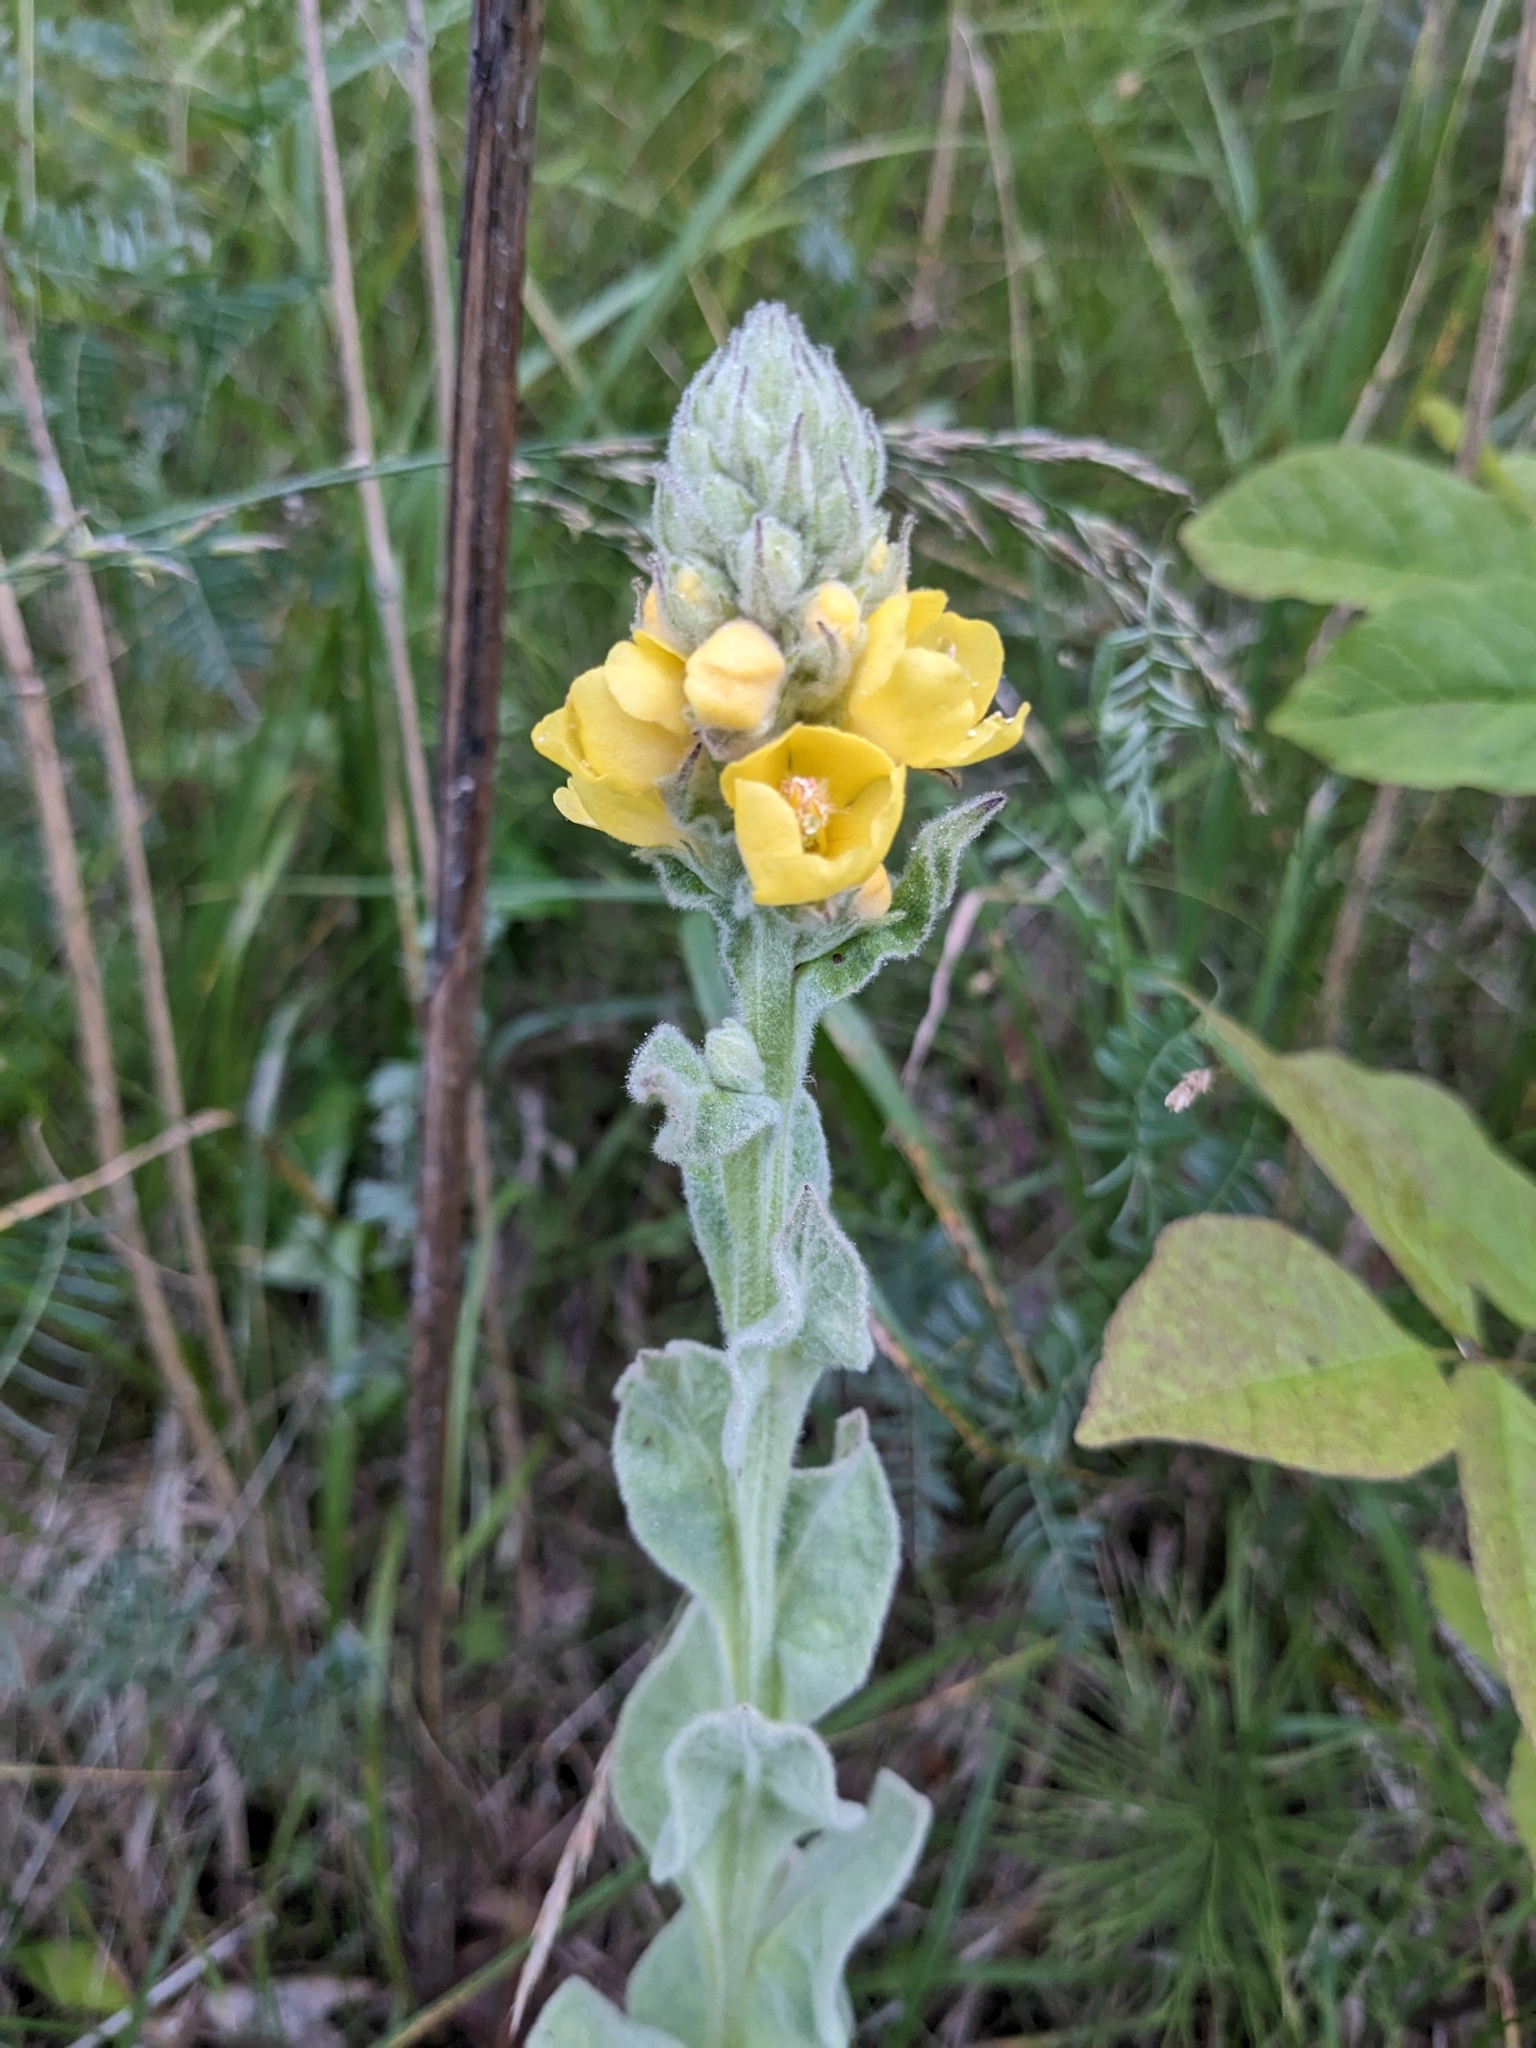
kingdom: Plantae
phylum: Tracheophyta
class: Magnoliopsida
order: Lamiales
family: Scrophulariaceae
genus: Verbascum
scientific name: Verbascum thapsus
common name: Common mullein
